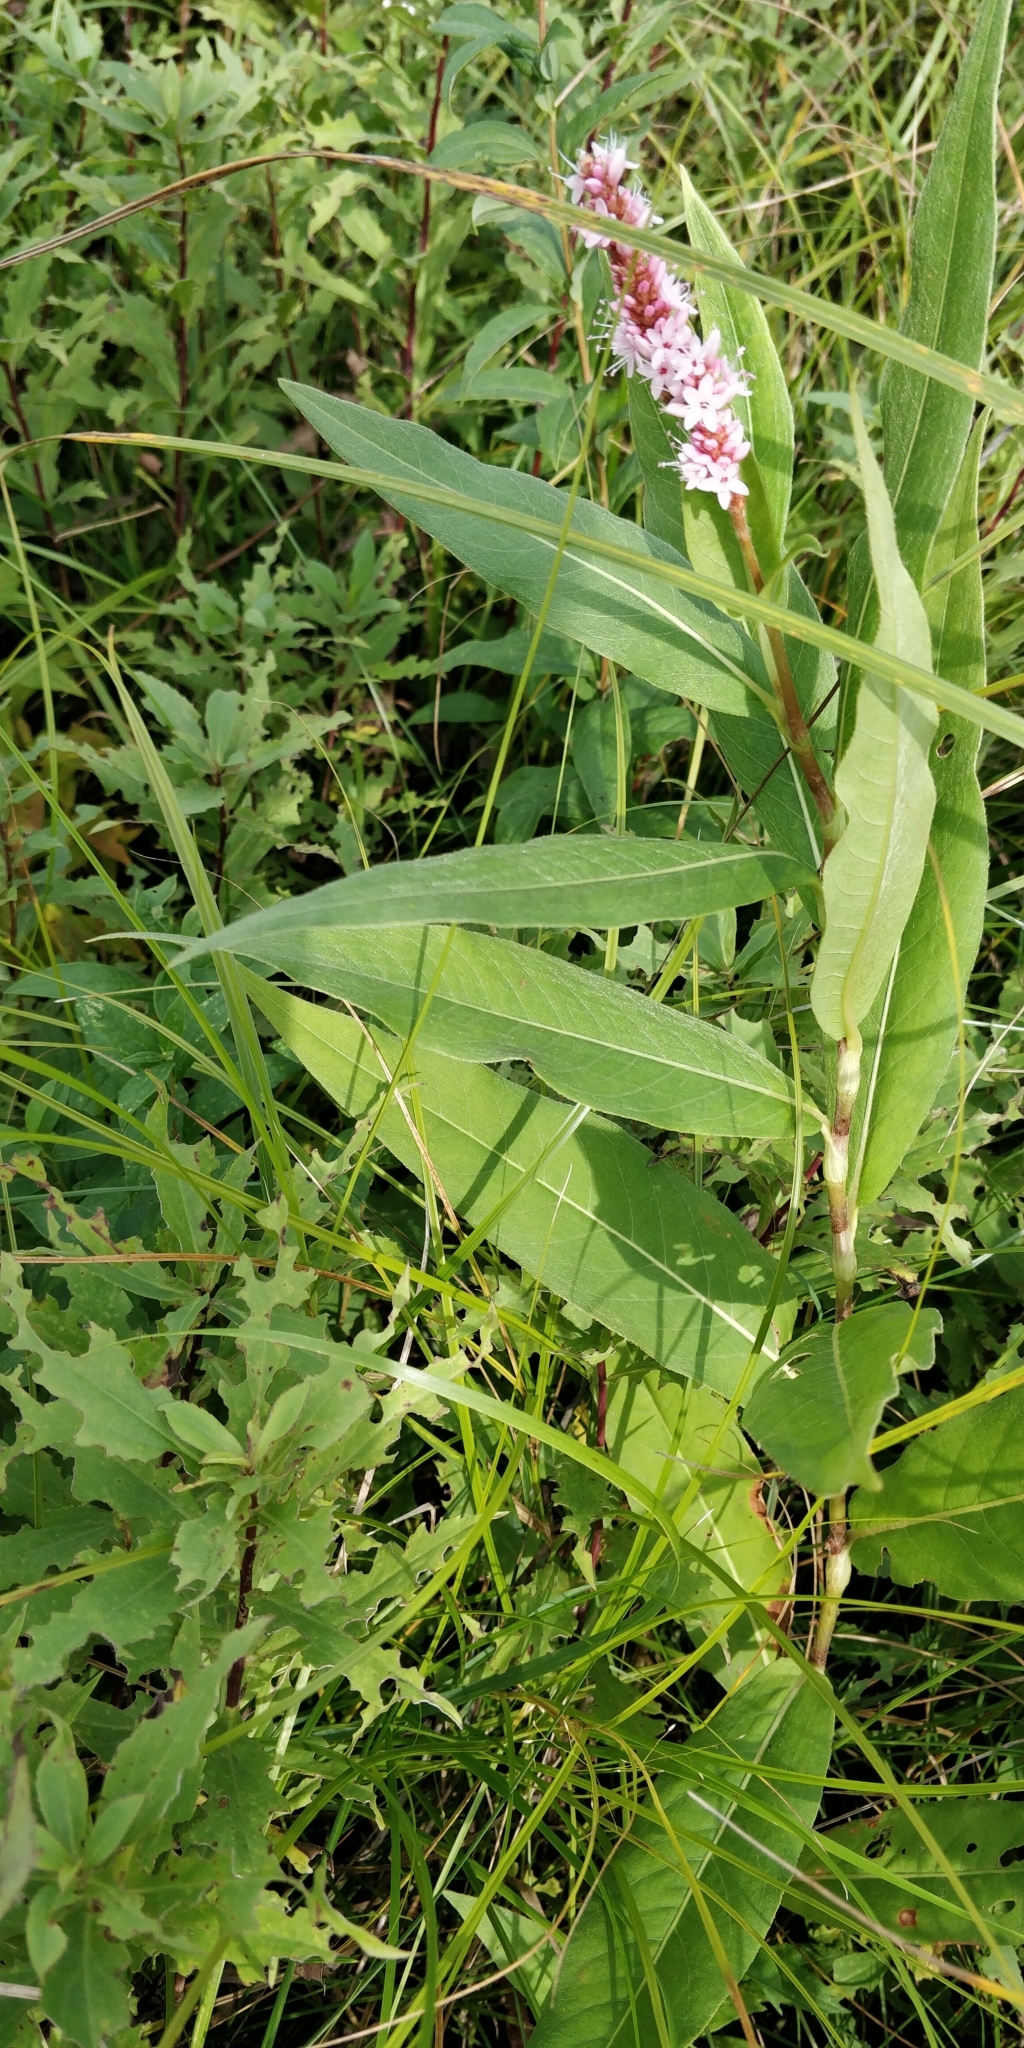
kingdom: Plantae
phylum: Tracheophyta
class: Magnoliopsida
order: Caryophyllales
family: Polygonaceae
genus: Persicaria
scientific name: Persicaria amphibia
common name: Amphibious bistort
